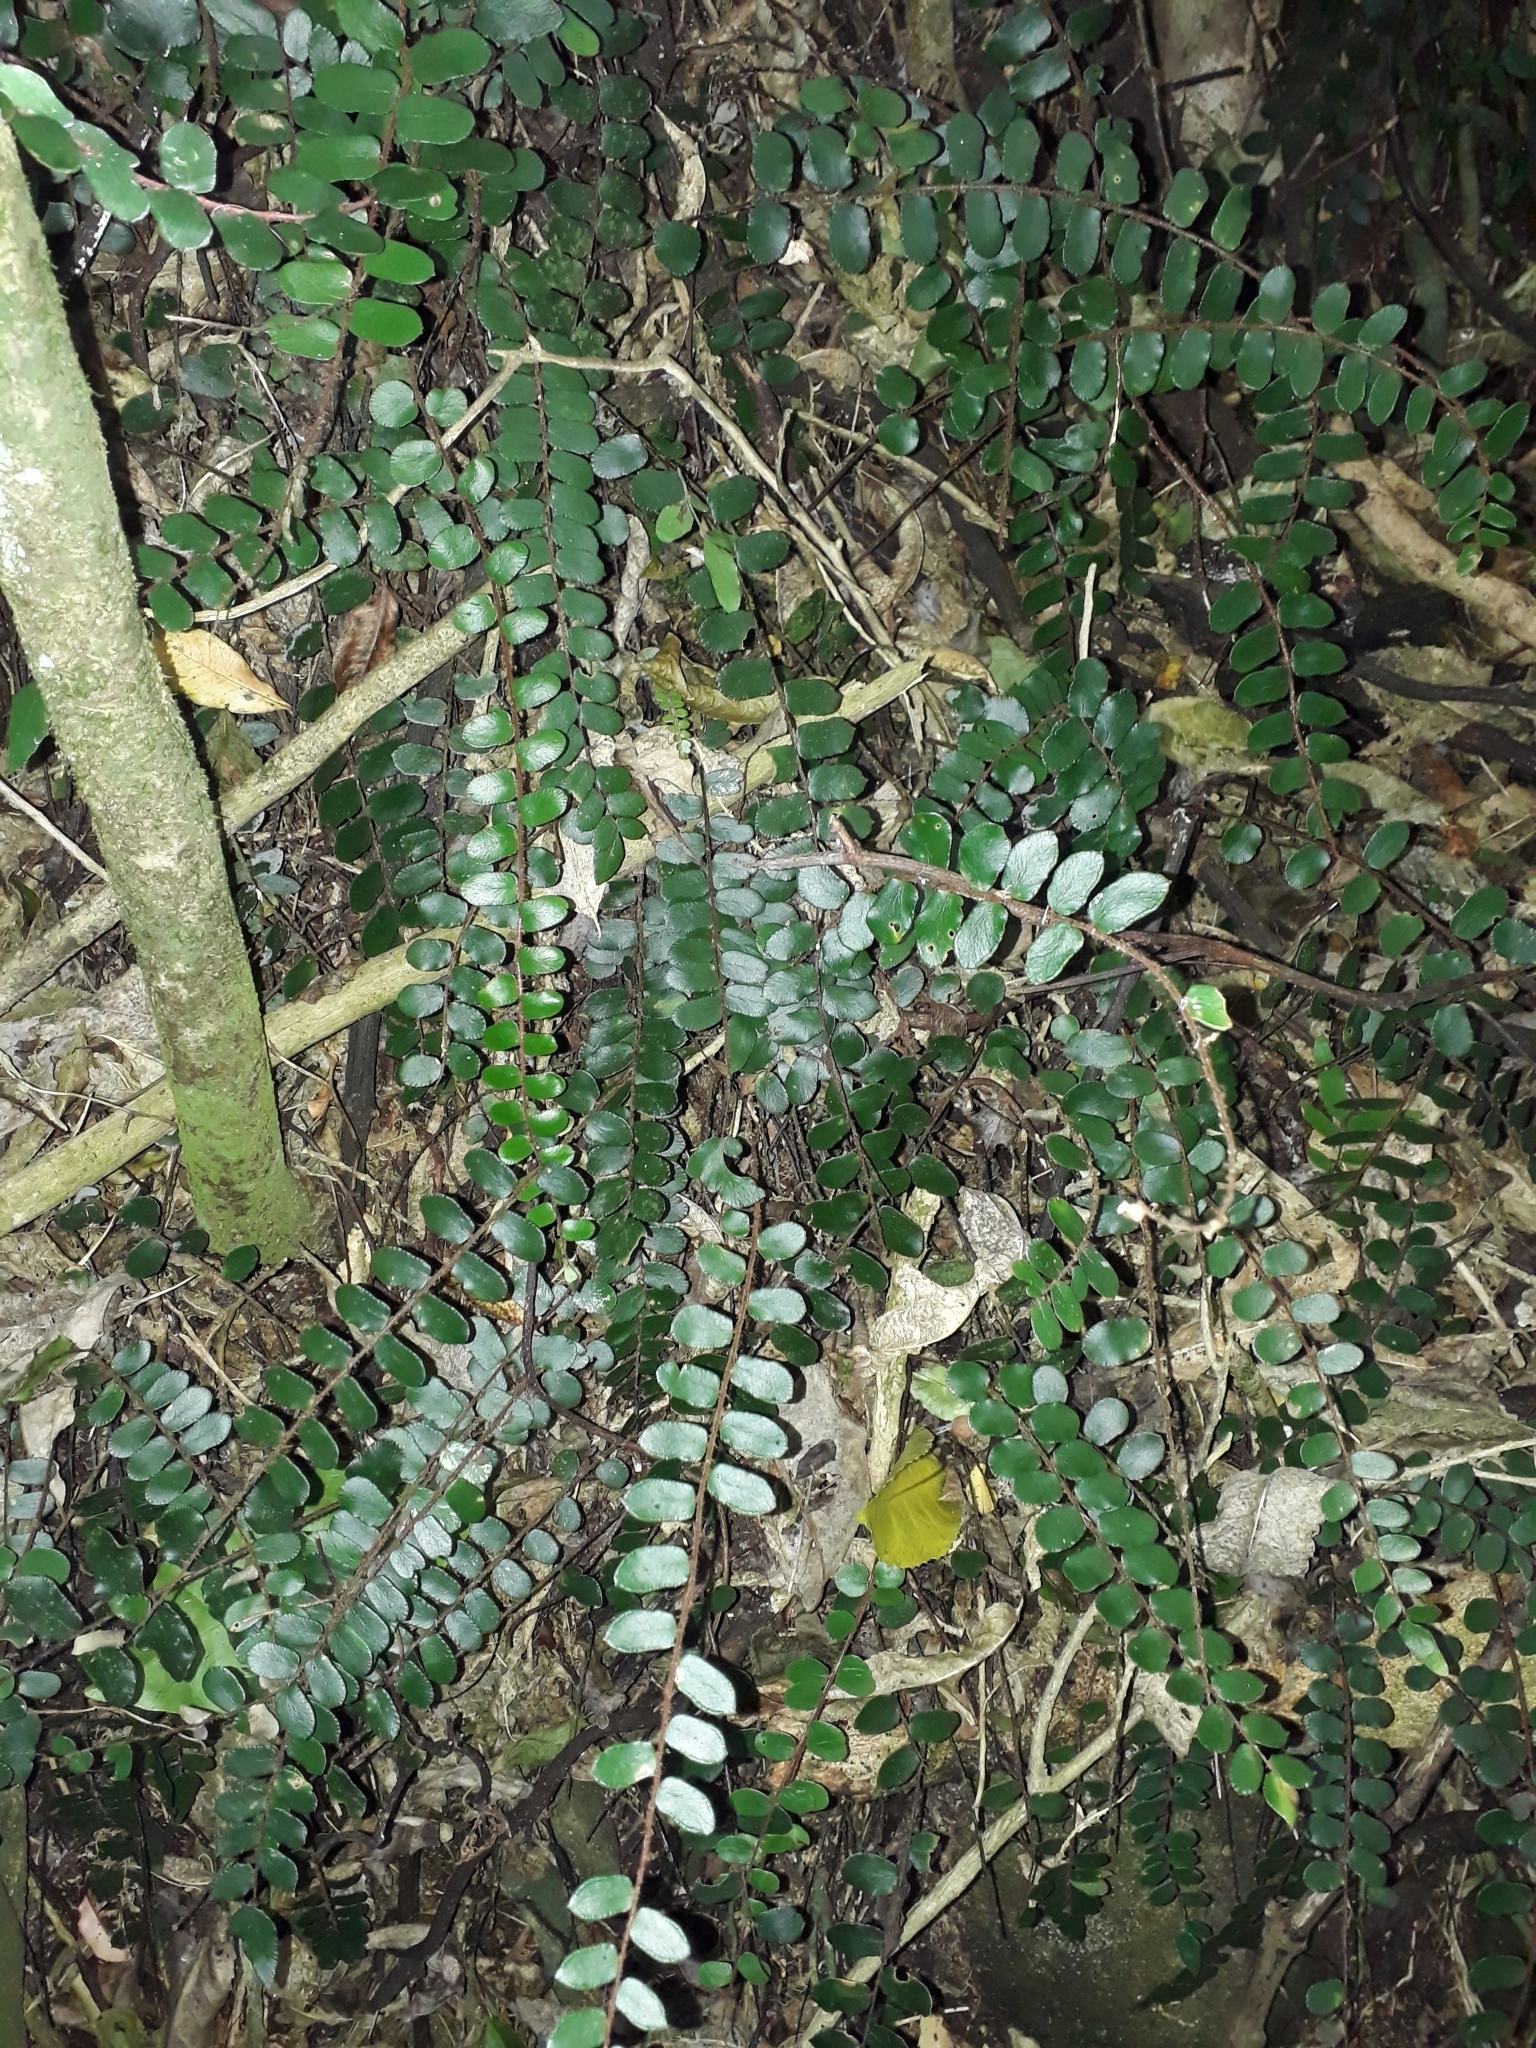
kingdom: Plantae
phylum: Tracheophyta
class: Polypodiopsida
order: Polypodiales
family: Pteridaceae
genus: Pellaea
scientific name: Pellaea rotundifolia
